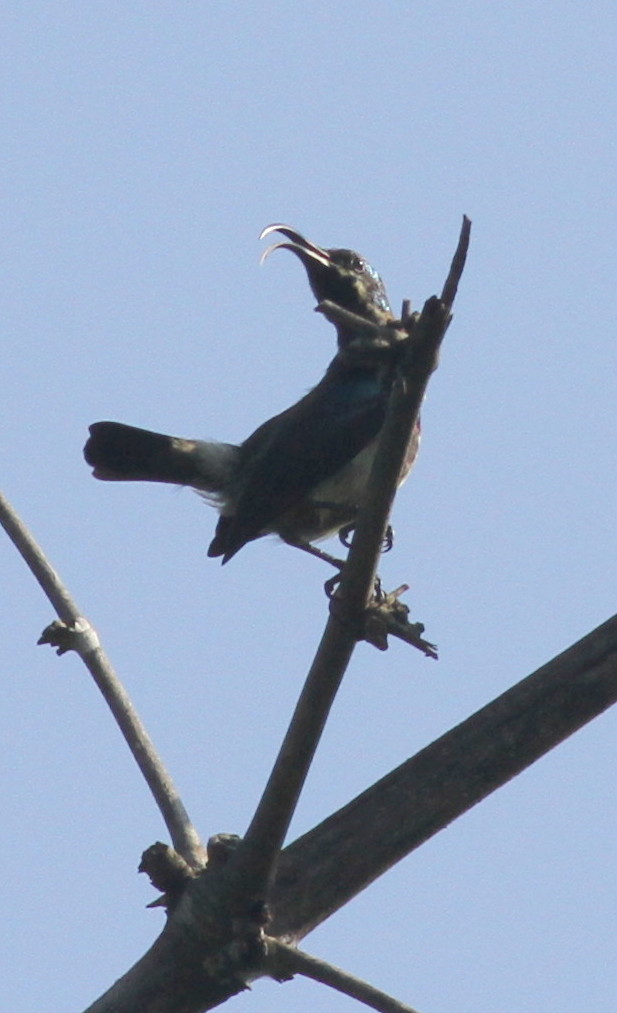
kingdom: Animalia
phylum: Chordata
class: Aves
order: Passeriformes
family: Nectariniidae
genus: Cinnyris
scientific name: Cinnyris lotenius
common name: Loten's sunbird
